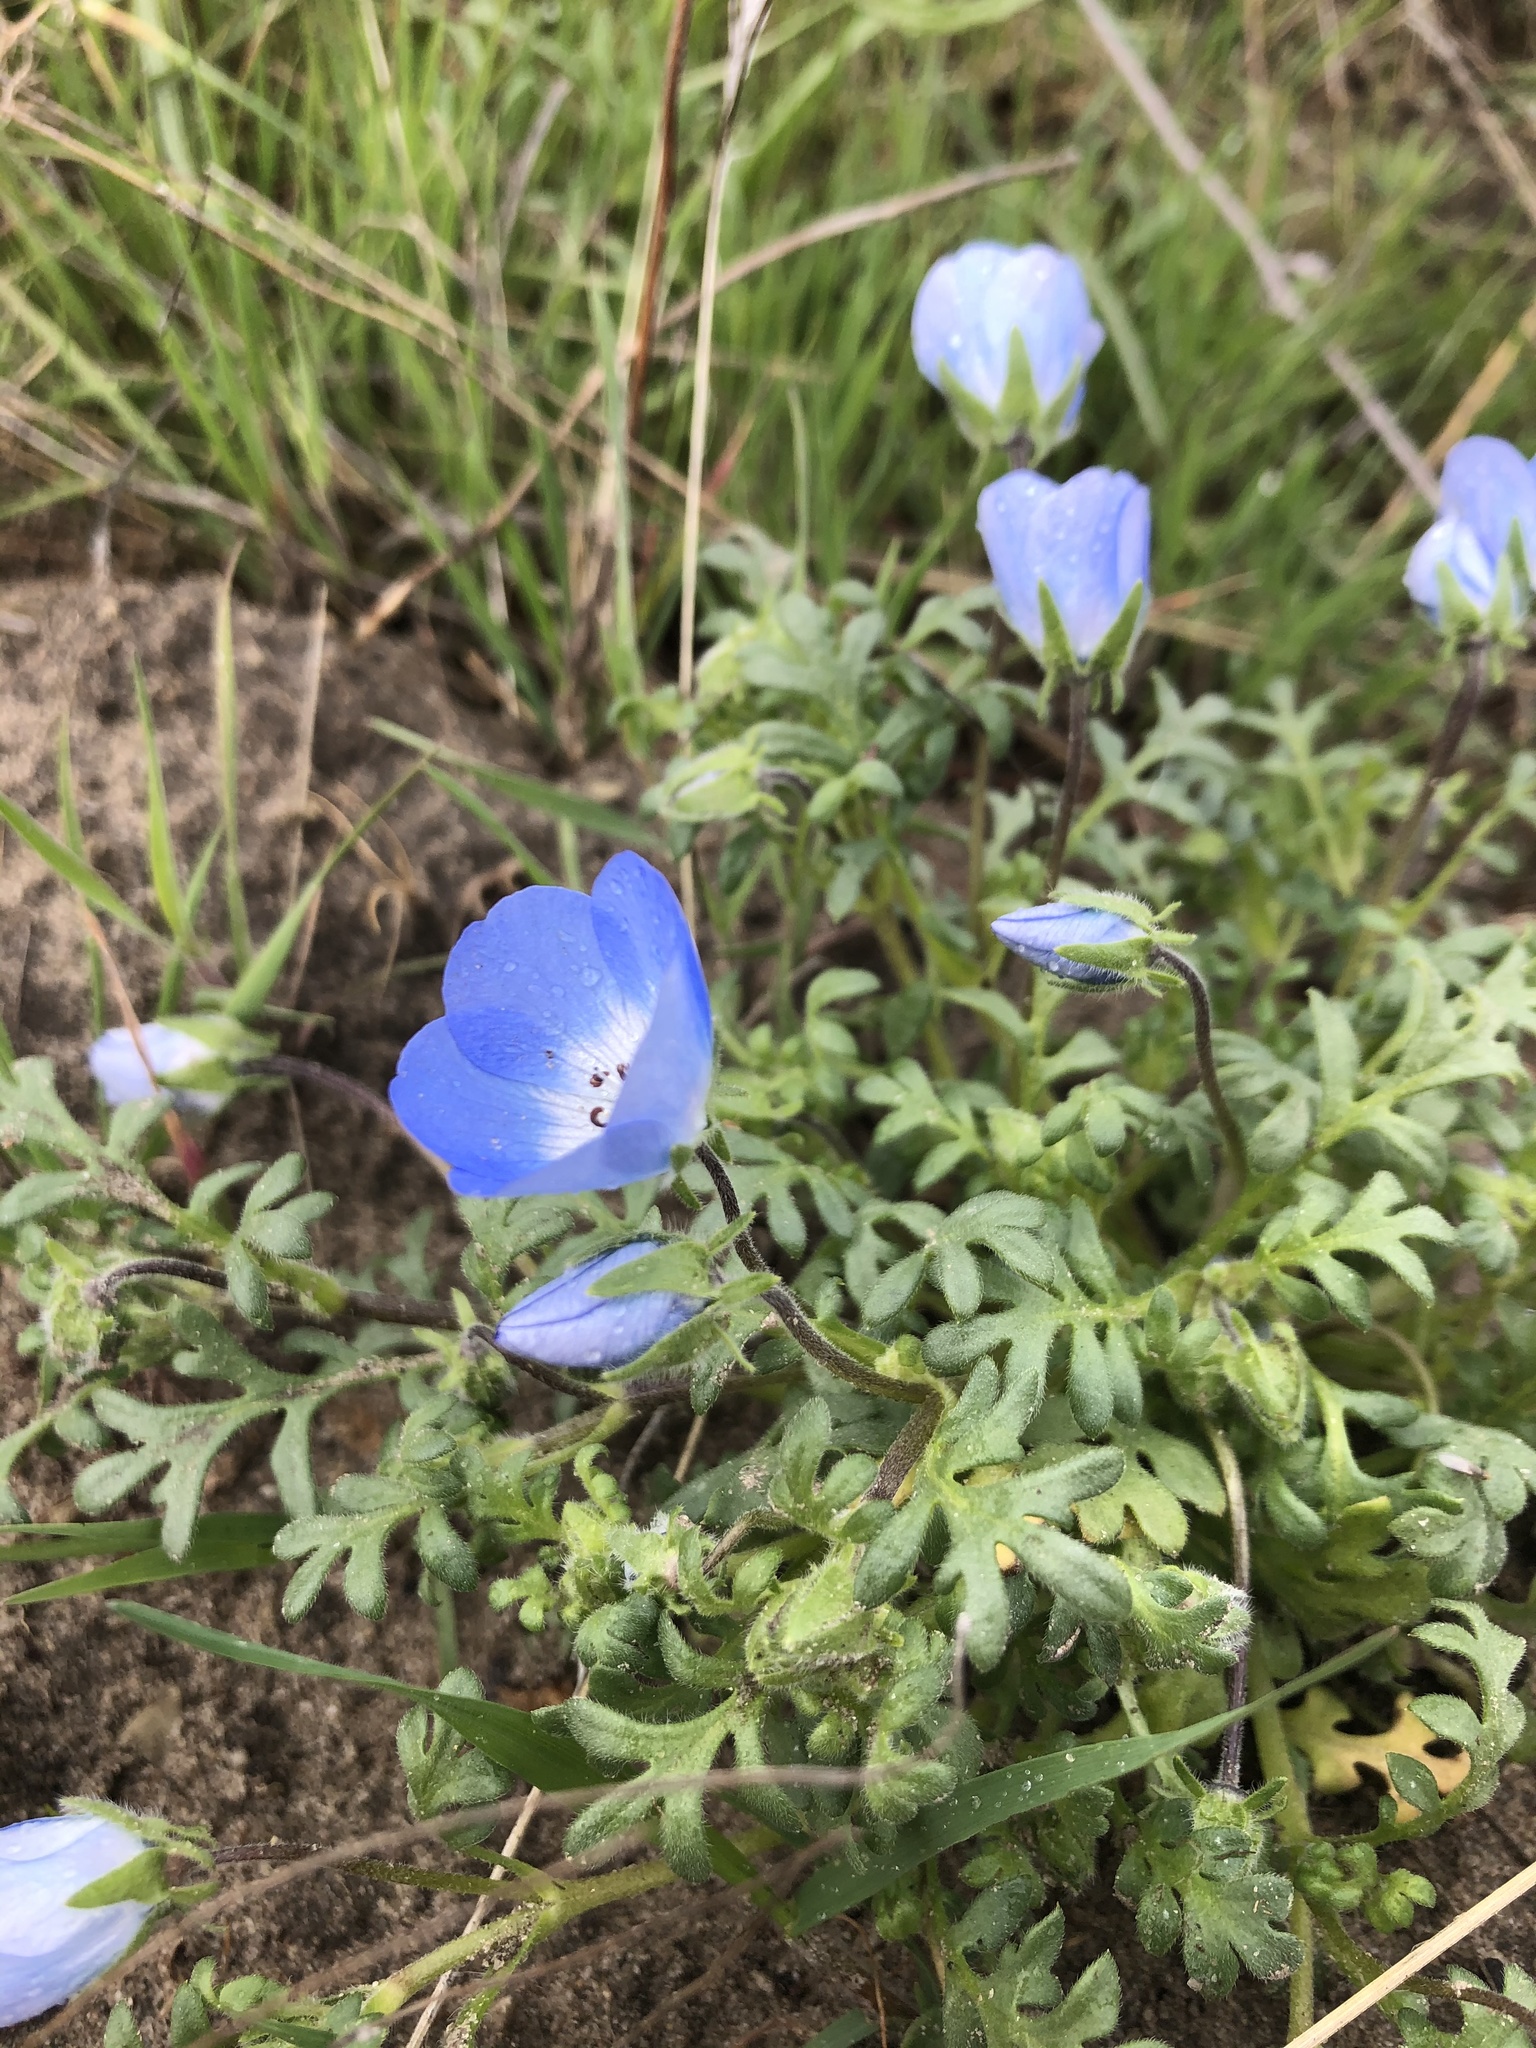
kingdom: Plantae
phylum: Tracheophyta
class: Magnoliopsida
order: Boraginales
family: Hydrophyllaceae
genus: Nemophila
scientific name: Nemophila menziesii
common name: Baby's-blue-eyes
